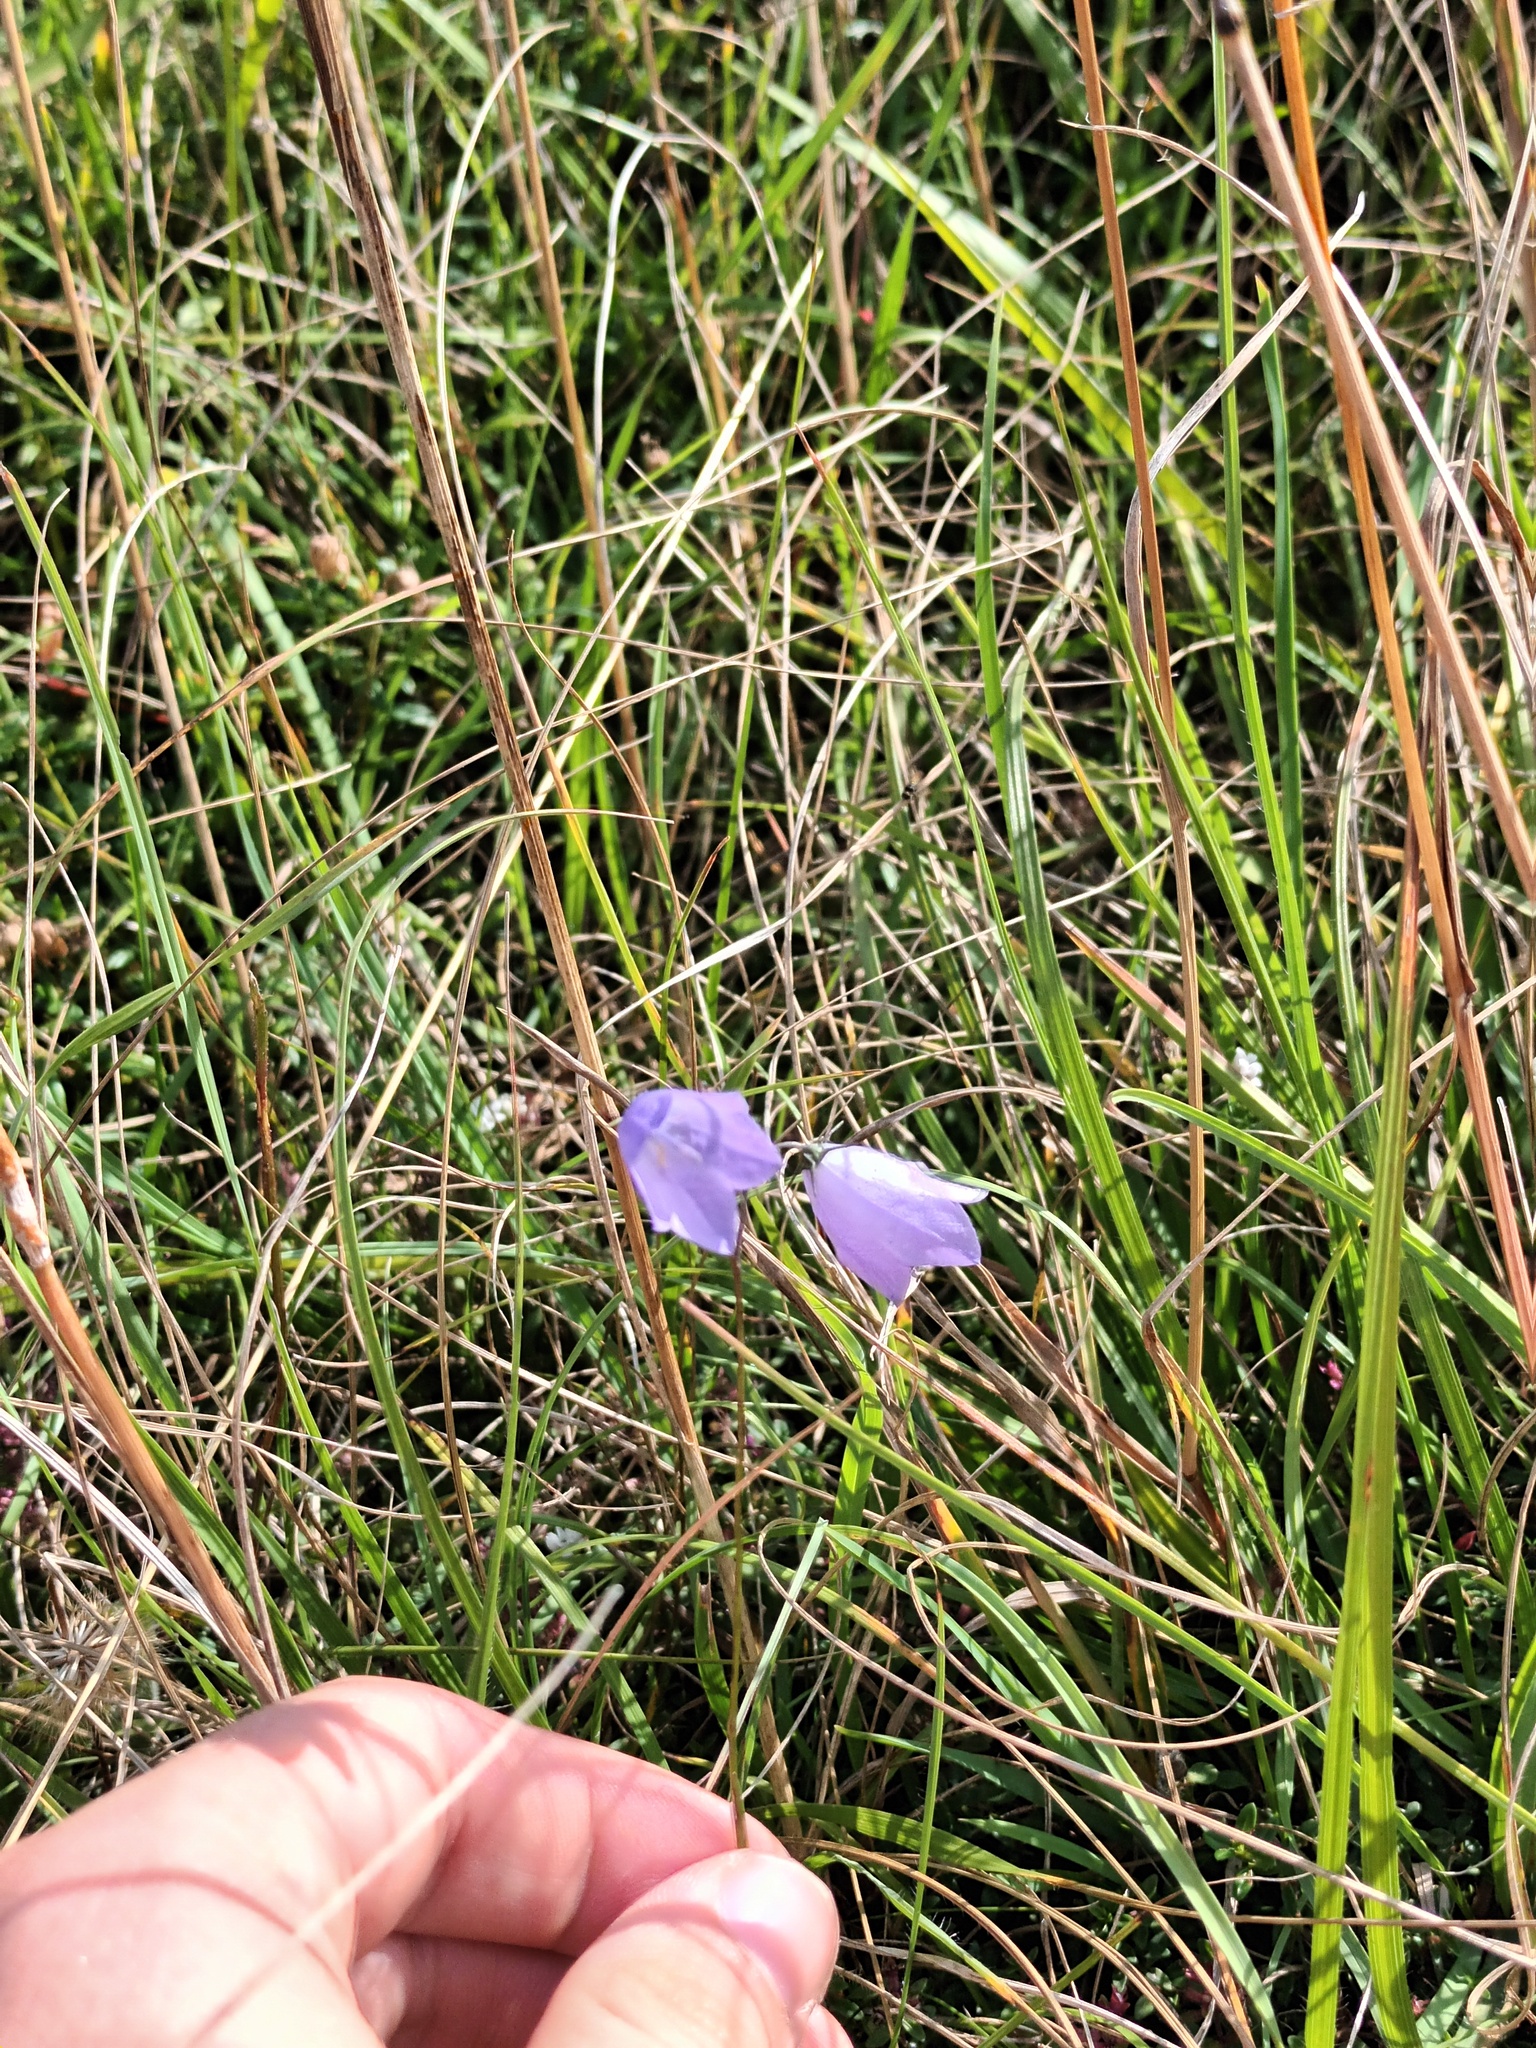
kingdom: Plantae
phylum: Tracheophyta
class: Magnoliopsida
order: Asterales
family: Campanulaceae
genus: Campanula
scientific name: Campanula rotundifolia
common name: Harebell
